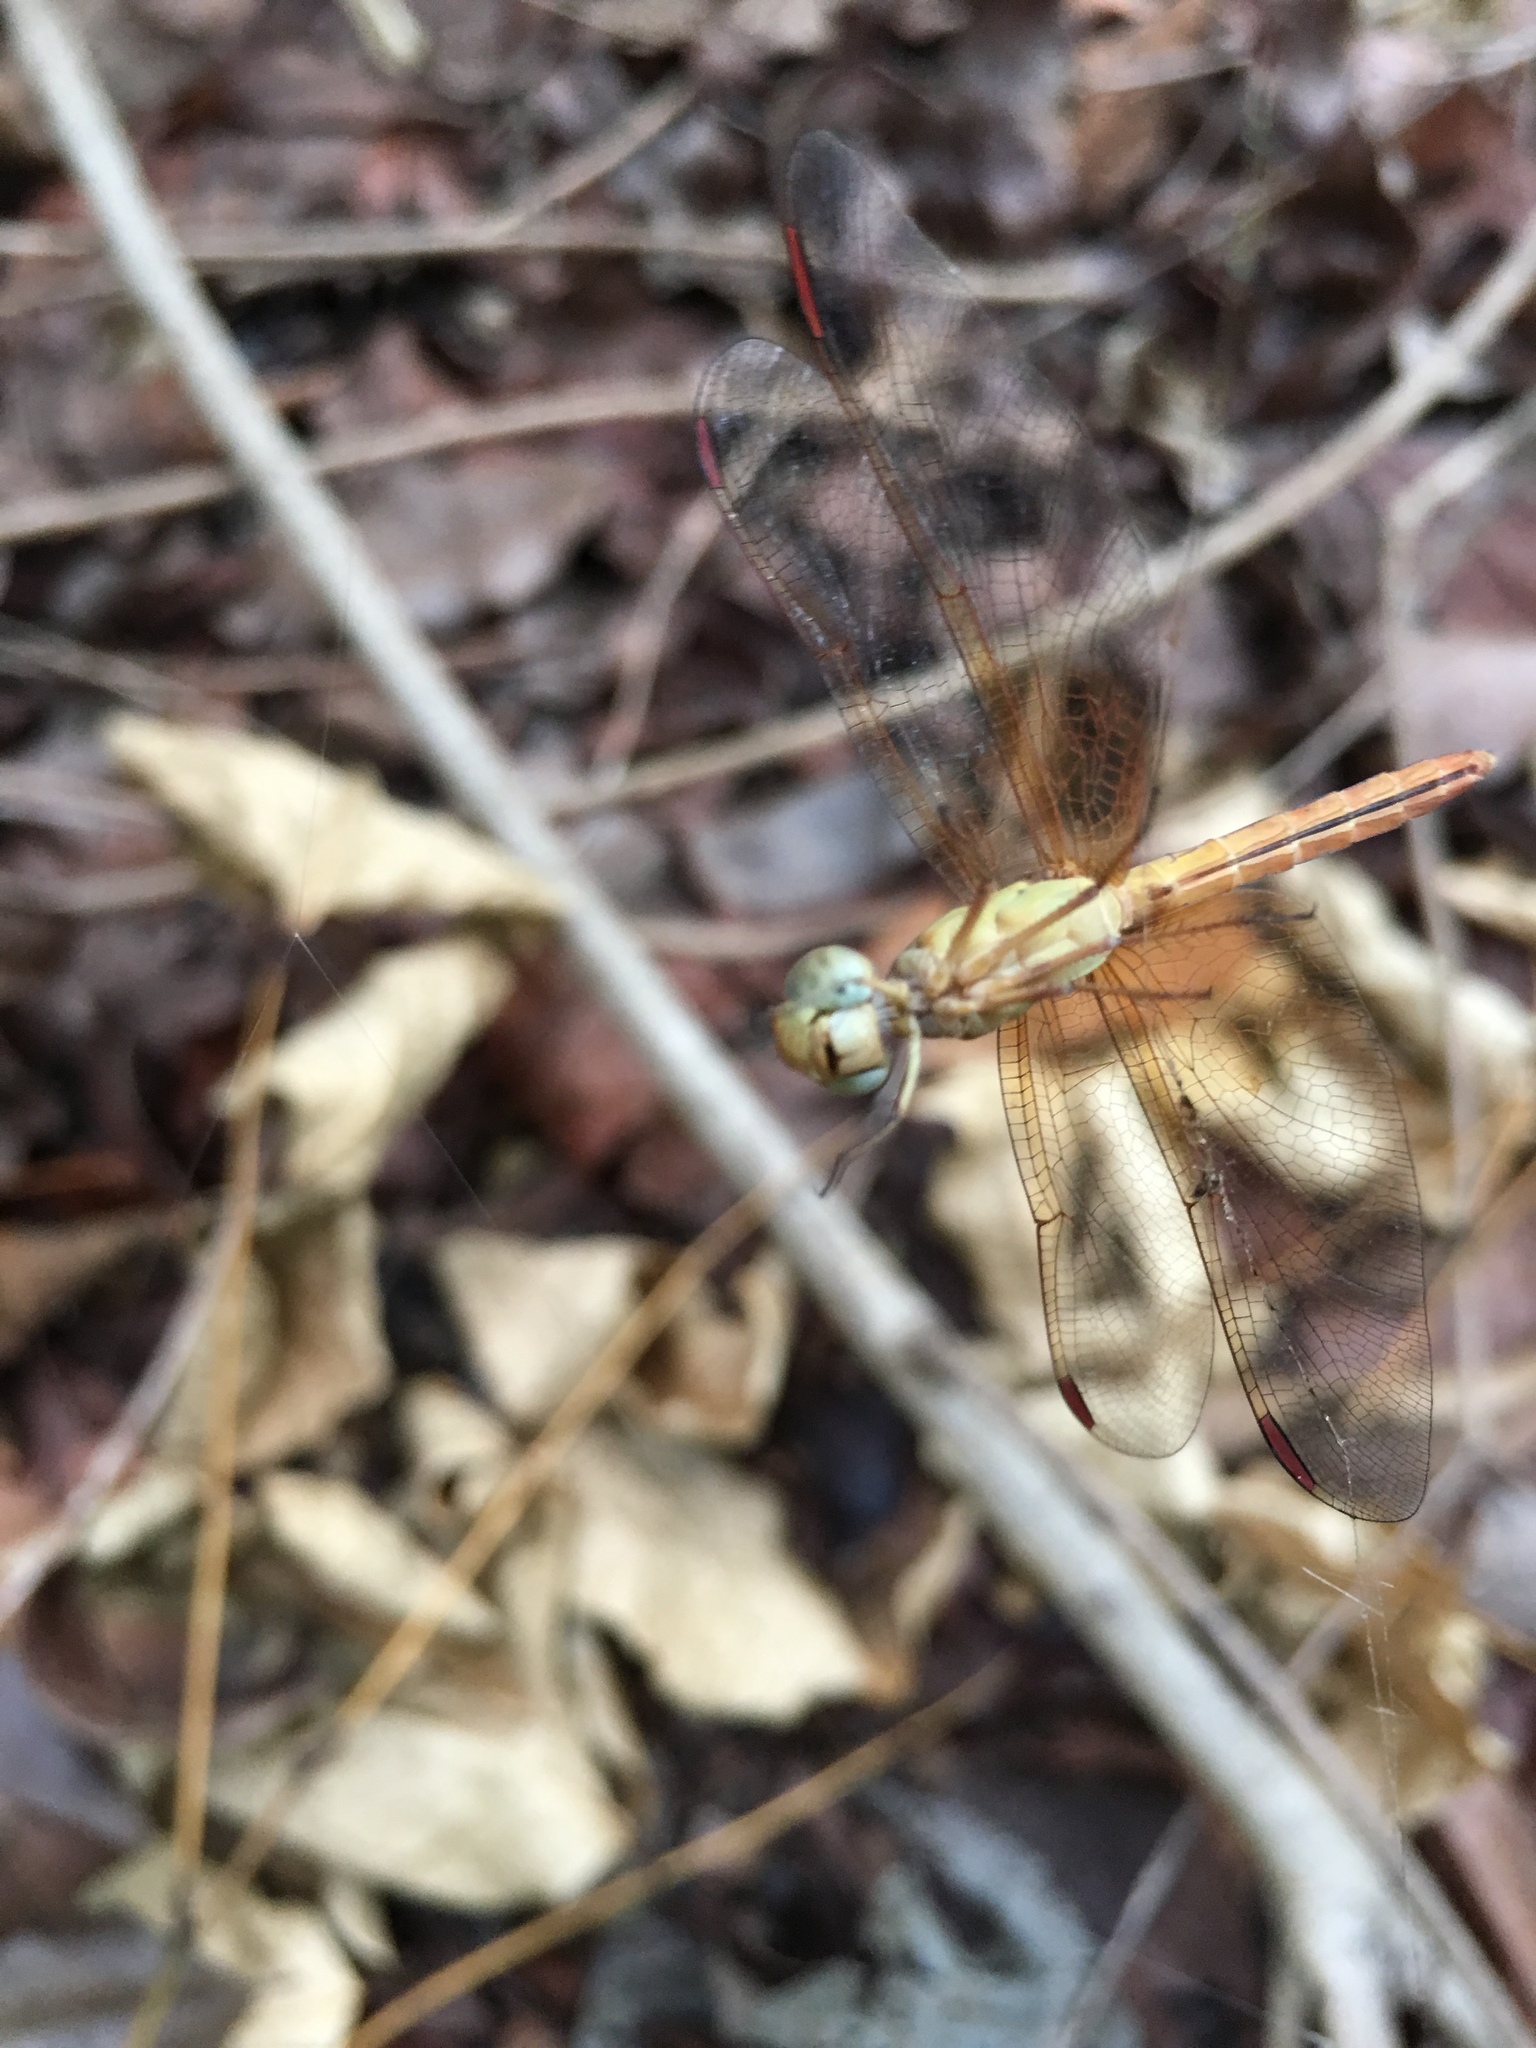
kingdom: Animalia
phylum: Arthropoda
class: Insecta
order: Odonata
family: Libellulidae
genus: Neurothemis
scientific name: Neurothemis intermedia
